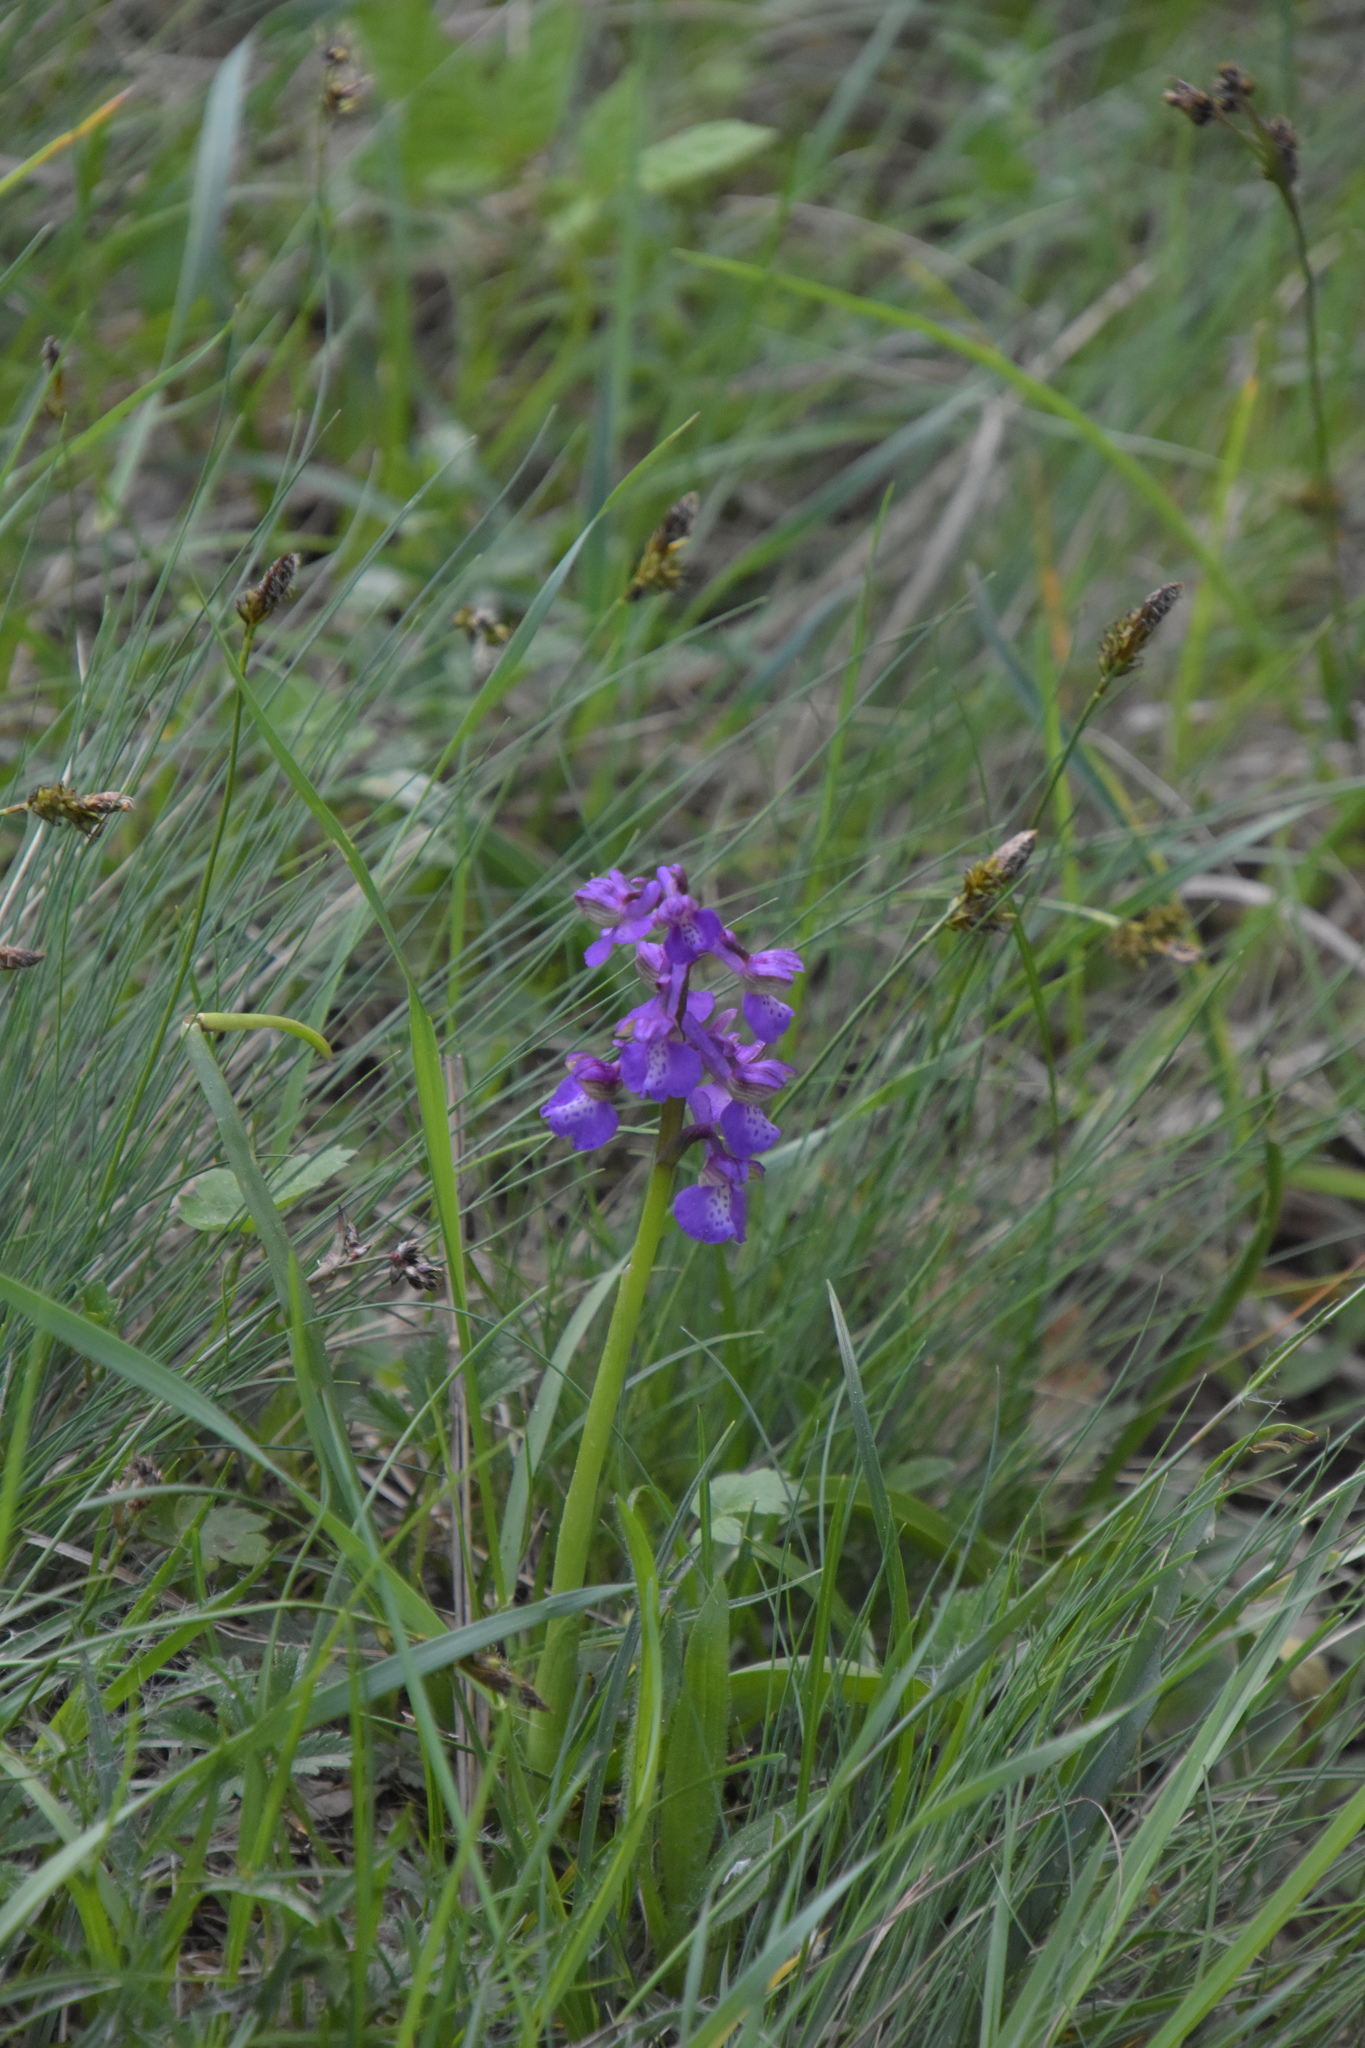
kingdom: Plantae
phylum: Tracheophyta
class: Liliopsida
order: Asparagales
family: Orchidaceae
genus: Anacamptis
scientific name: Anacamptis morio
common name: Green-winged orchid
